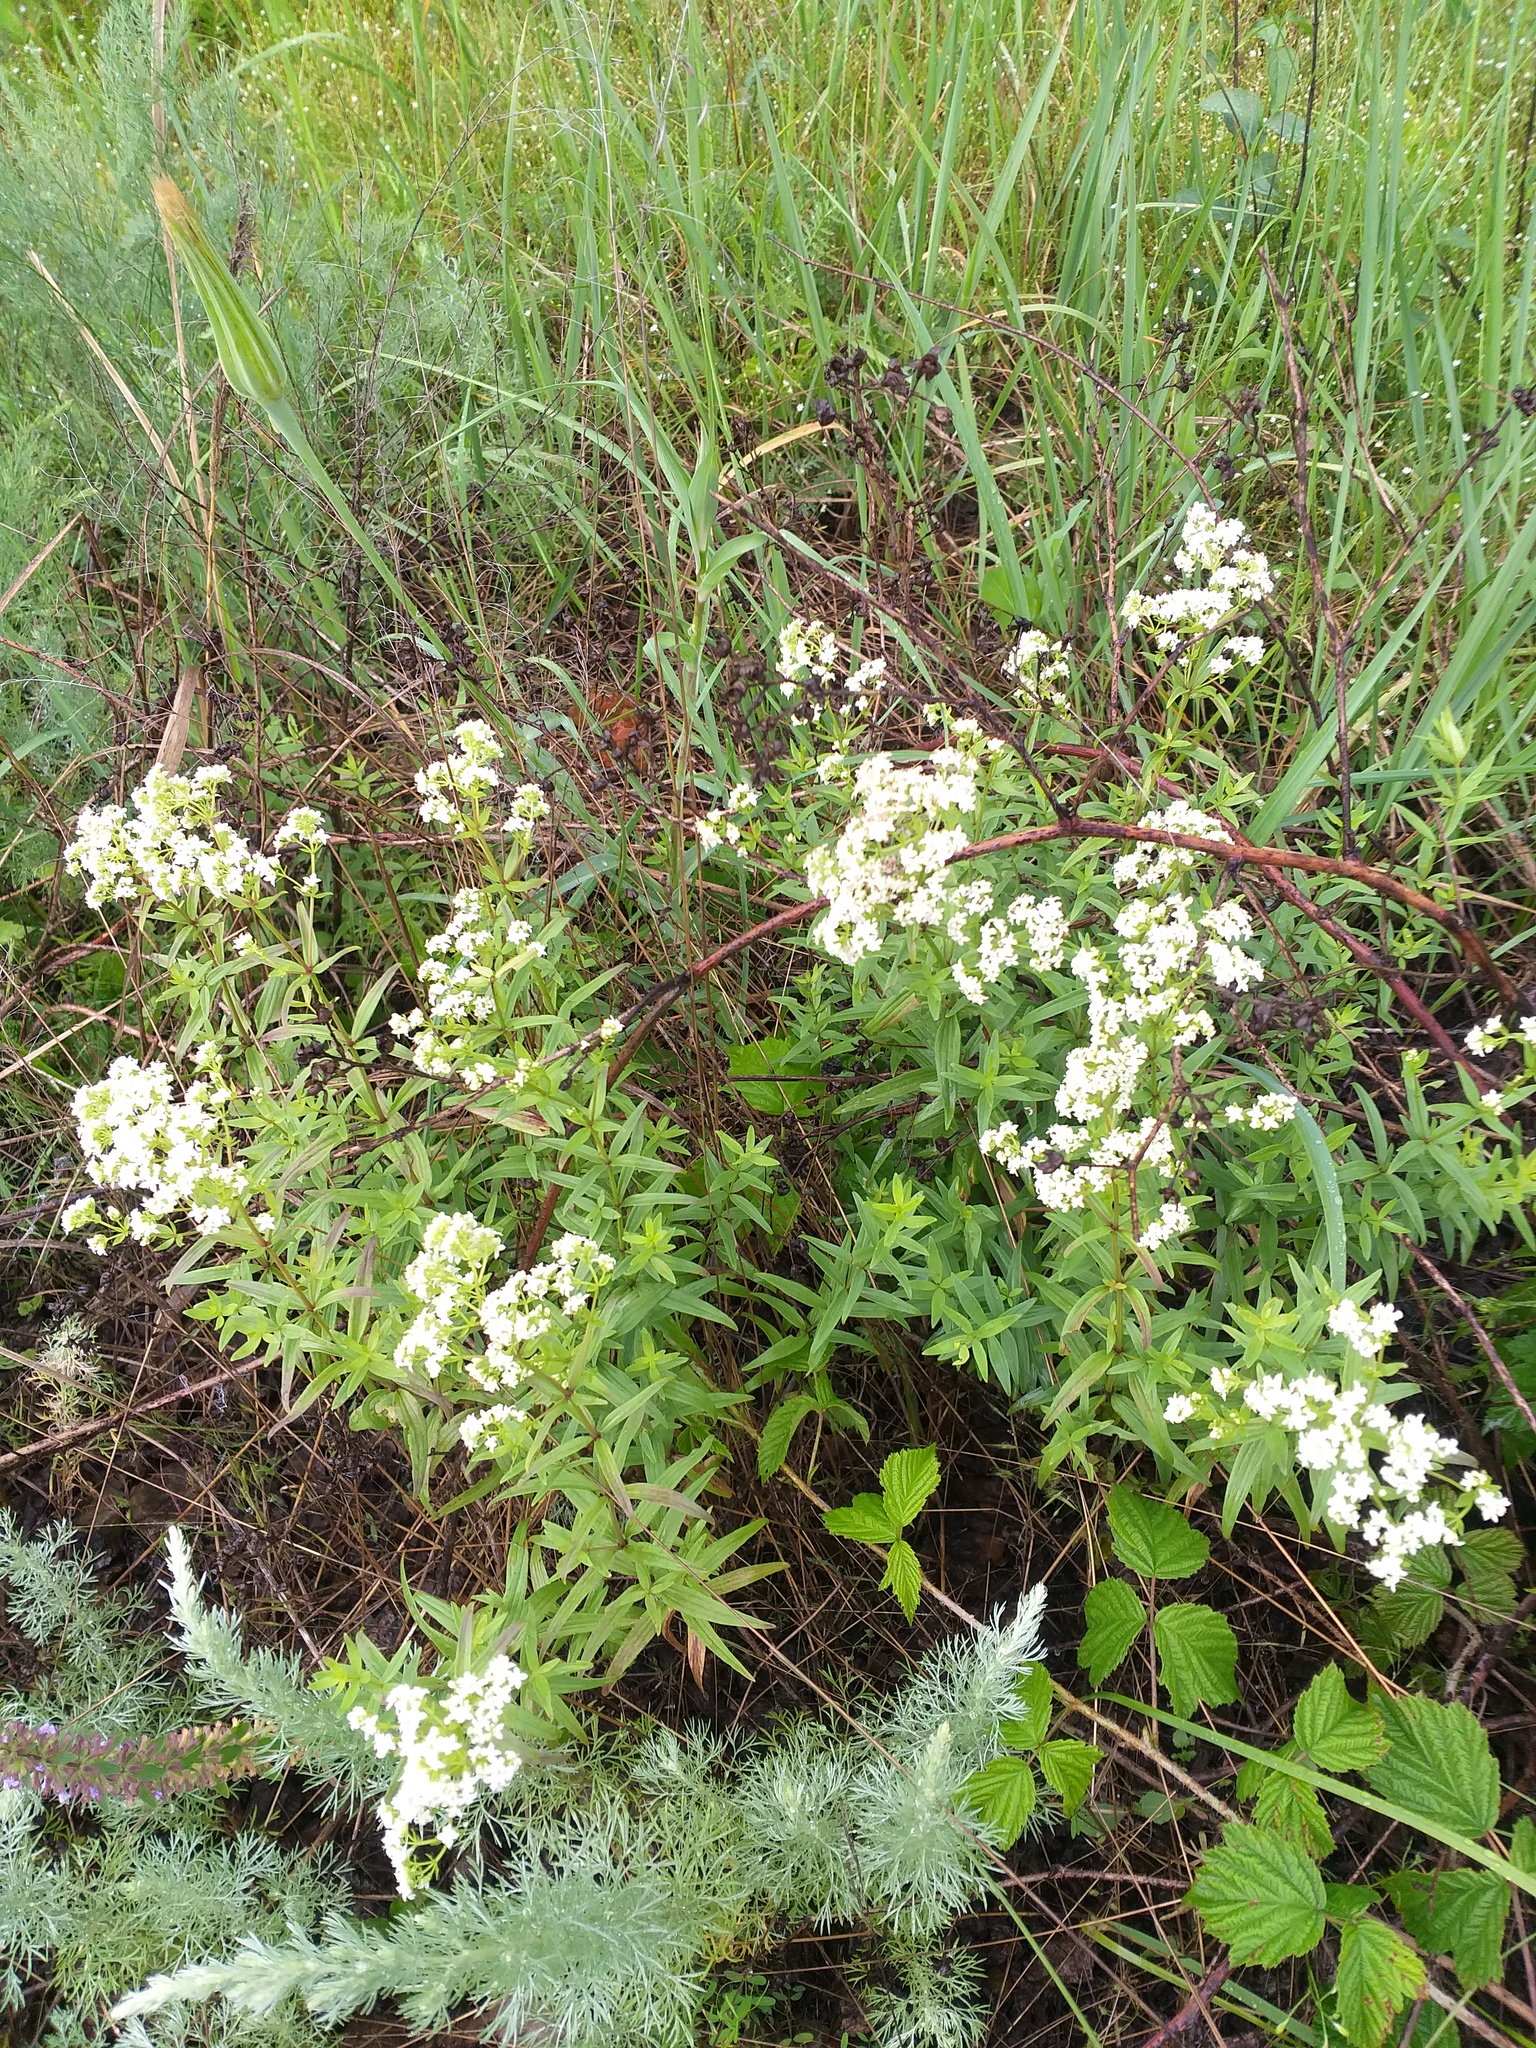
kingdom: Plantae
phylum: Tracheophyta
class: Magnoliopsida
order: Gentianales
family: Rubiaceae
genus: Galium
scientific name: Galium boreale
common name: Northern bedstraw
